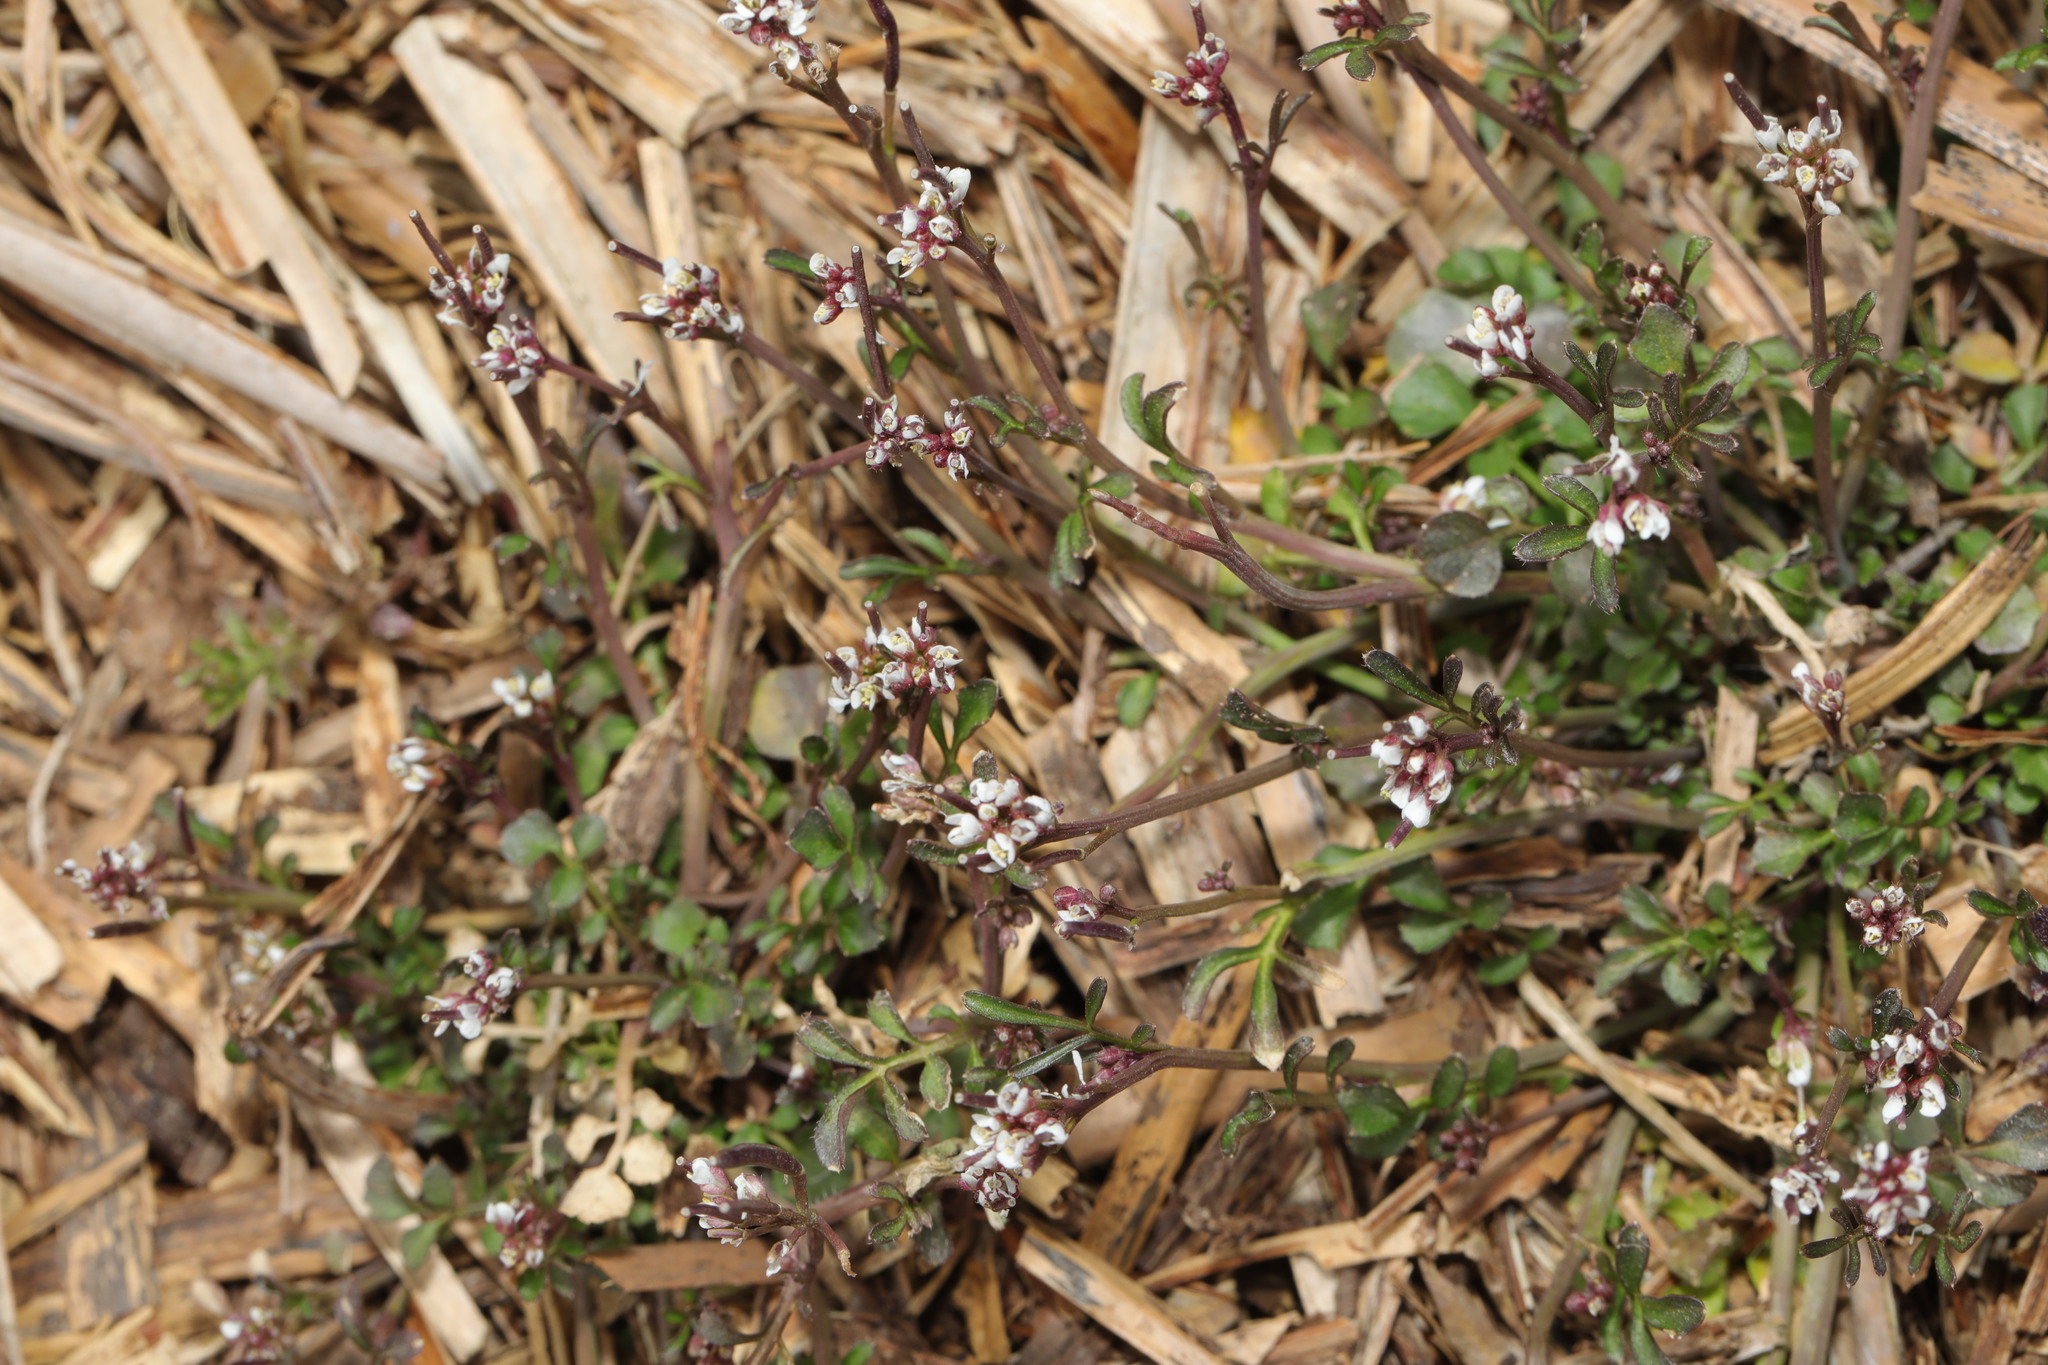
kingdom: Plantae
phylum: Tracheophyta
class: Magnoliopsida
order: Brassicales
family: Brassicaceae
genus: Cardamine
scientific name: Cardamine hirsuta
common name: Hairy bittercress
